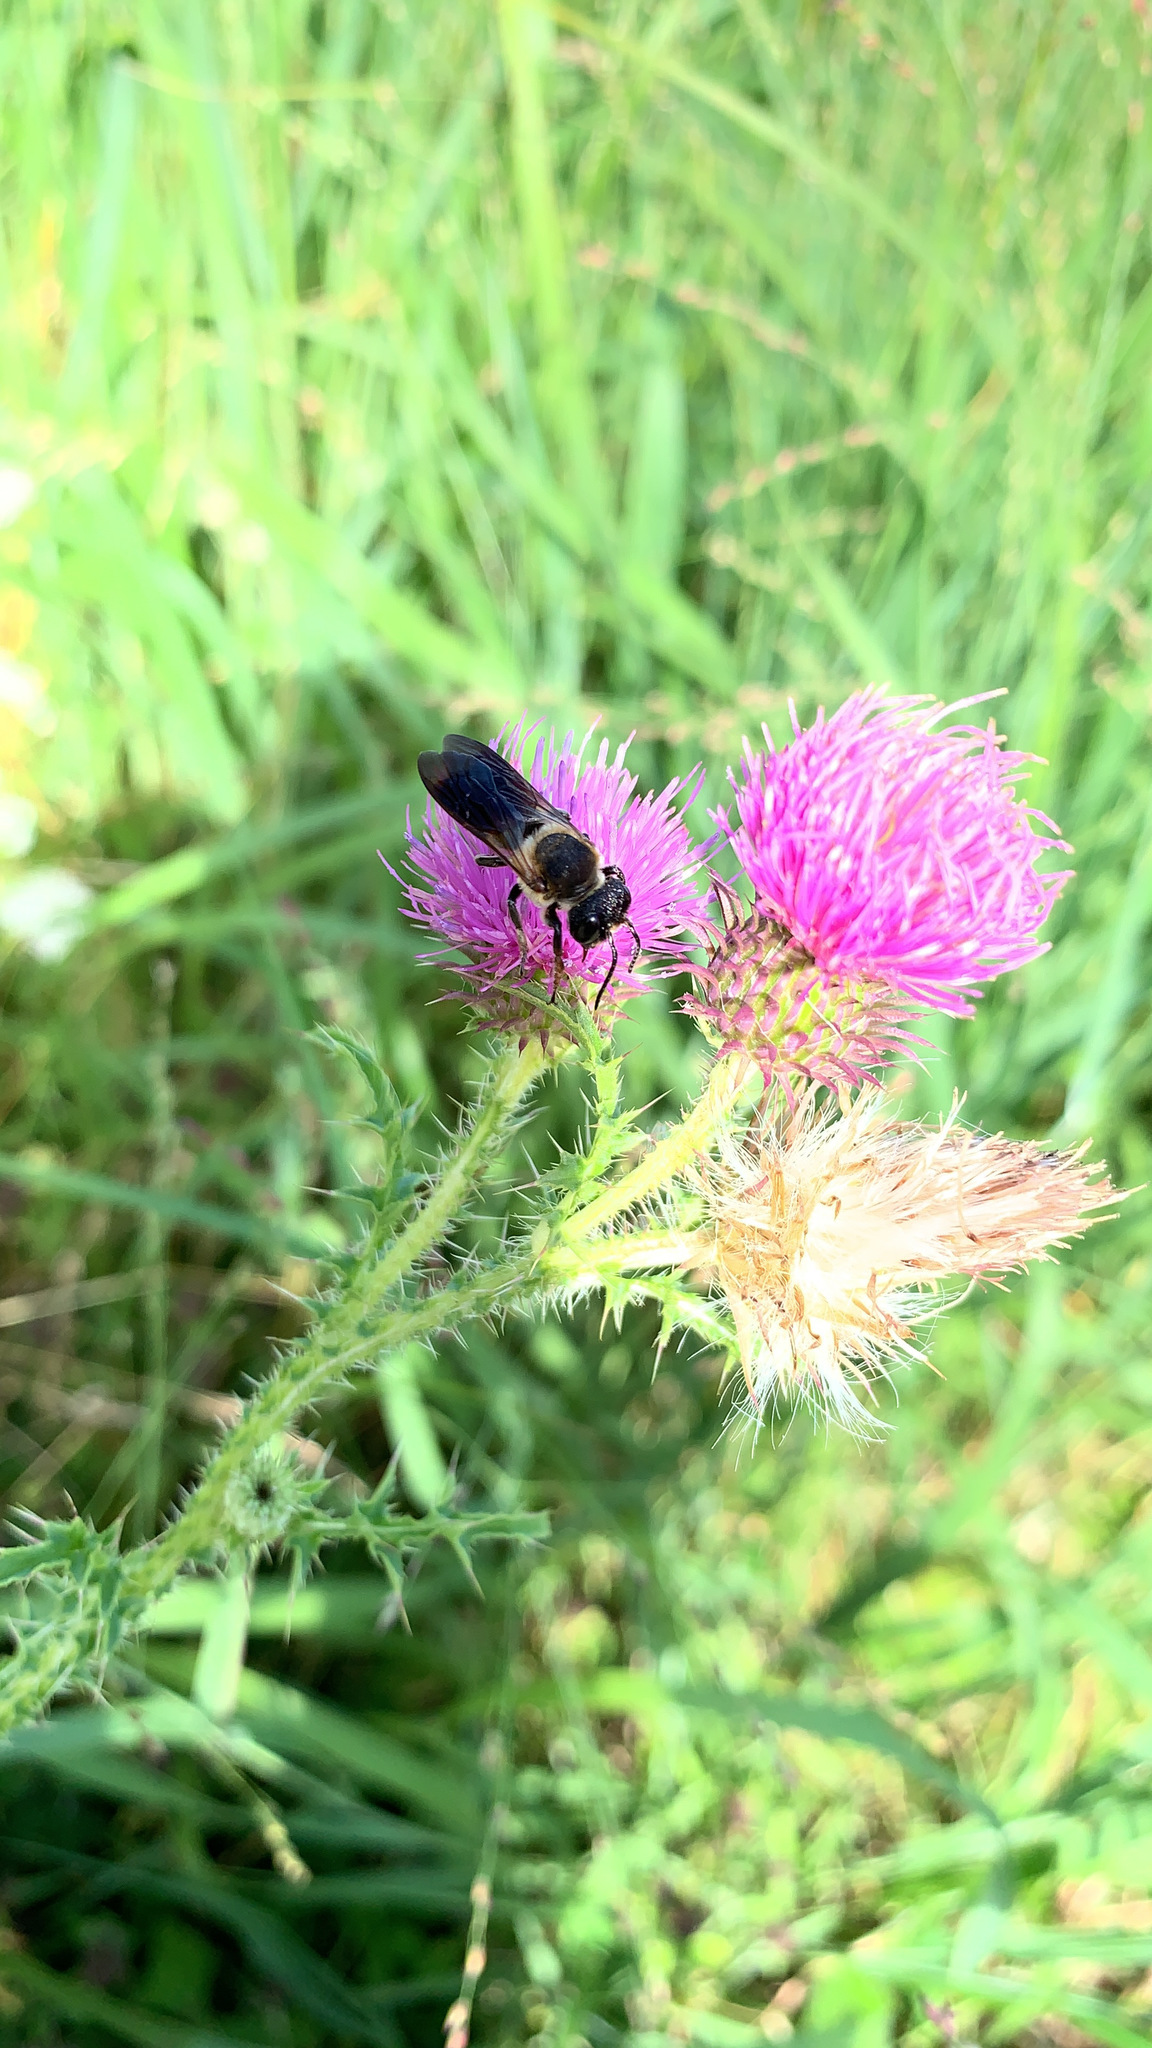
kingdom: Animalia
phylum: Arthropoda
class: Insecta
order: Hymenoptera
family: Megachilidae
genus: Megachile
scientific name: Megachile sculpturalis
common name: Sculptured resin bee
